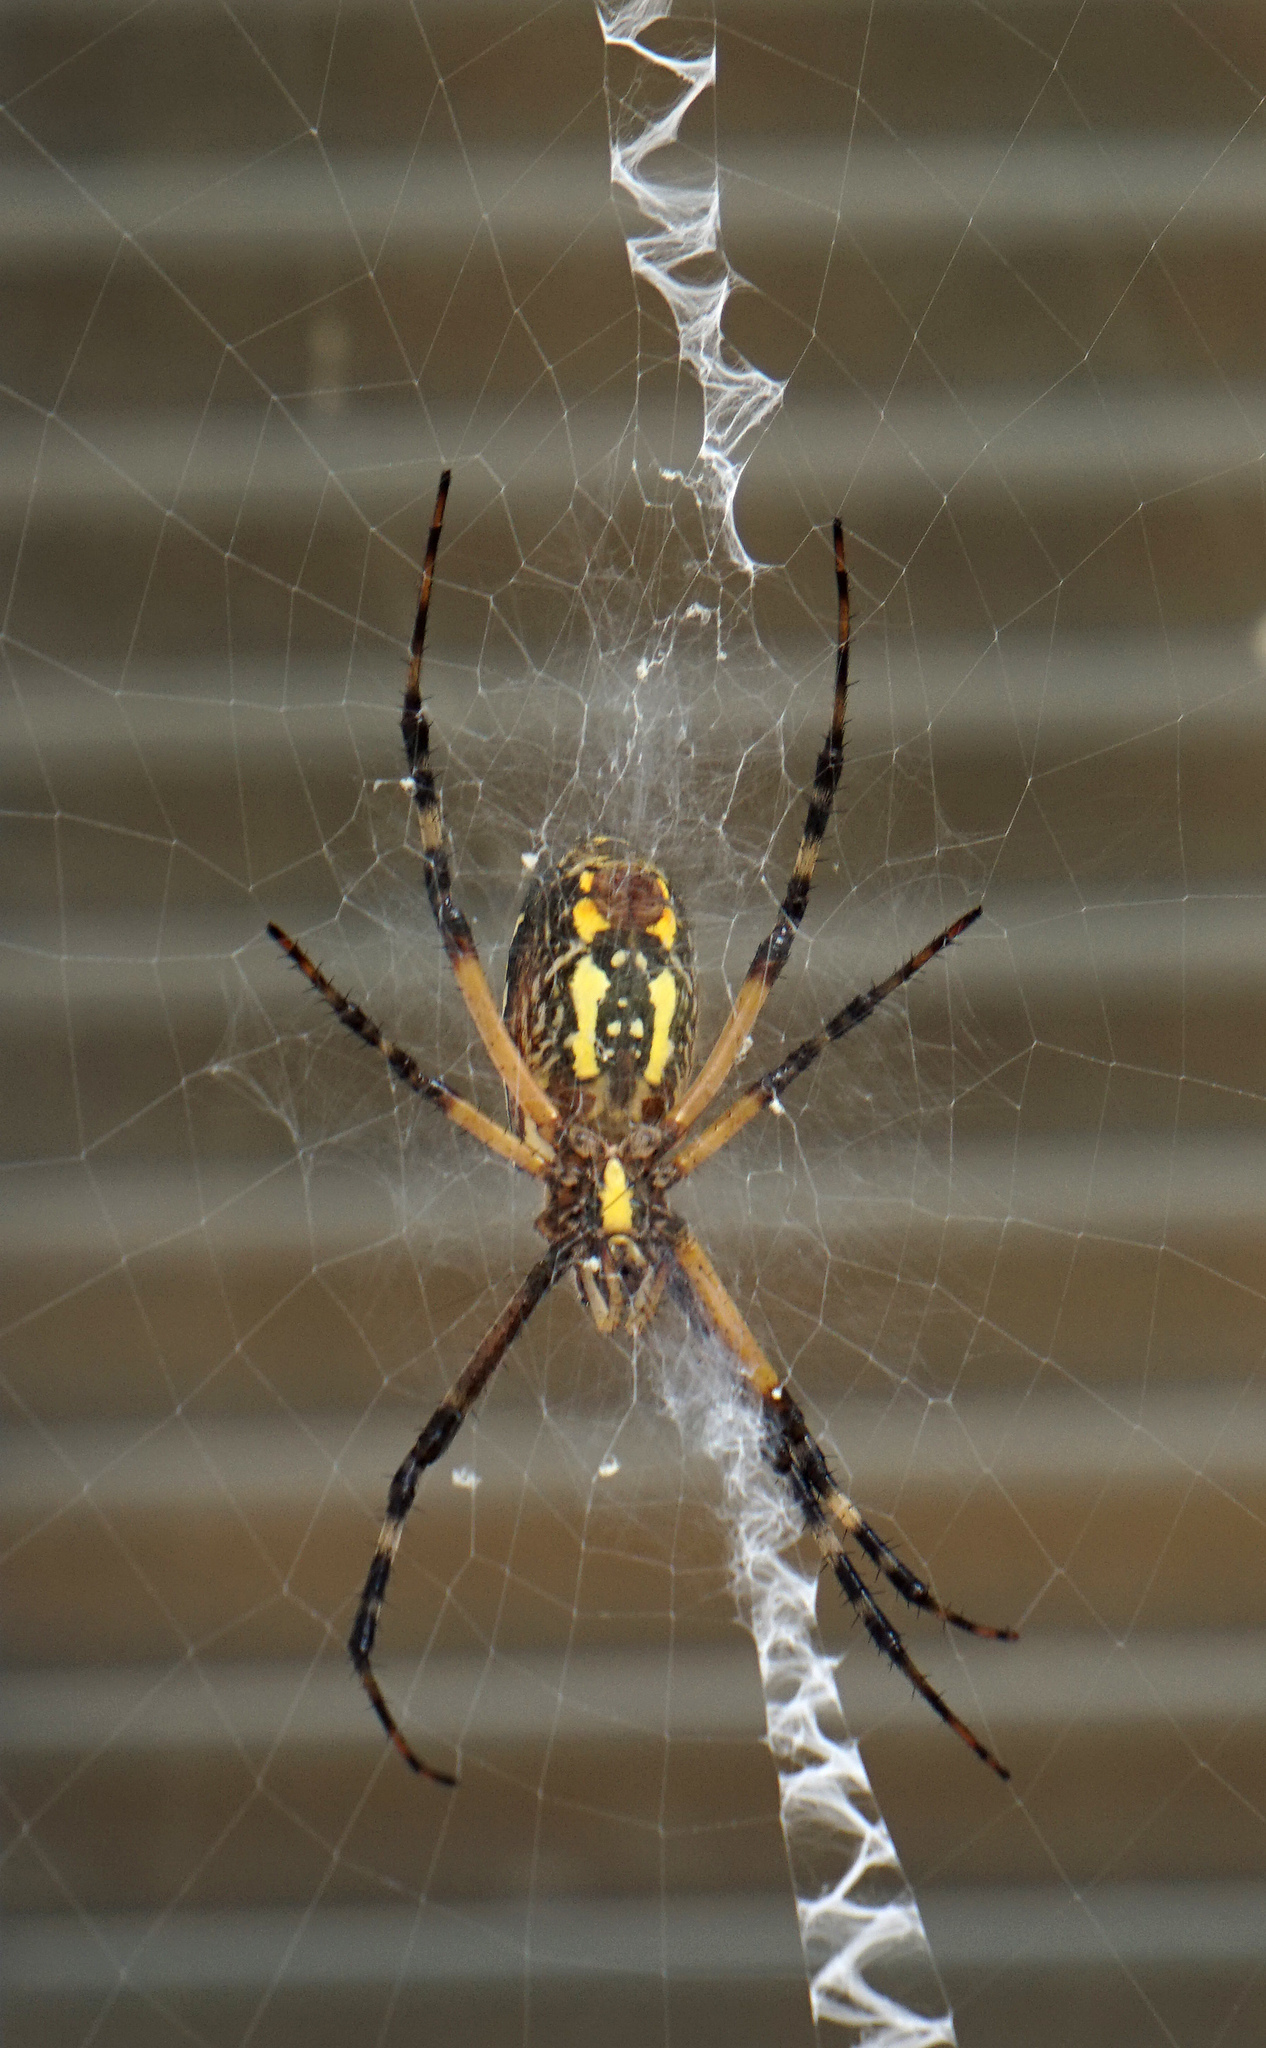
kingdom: Animalia
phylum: Arthropoda
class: Arachnida
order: Araneae
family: Araneidae
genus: Argiope
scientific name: Argiope aurantia
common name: Orb weavers
